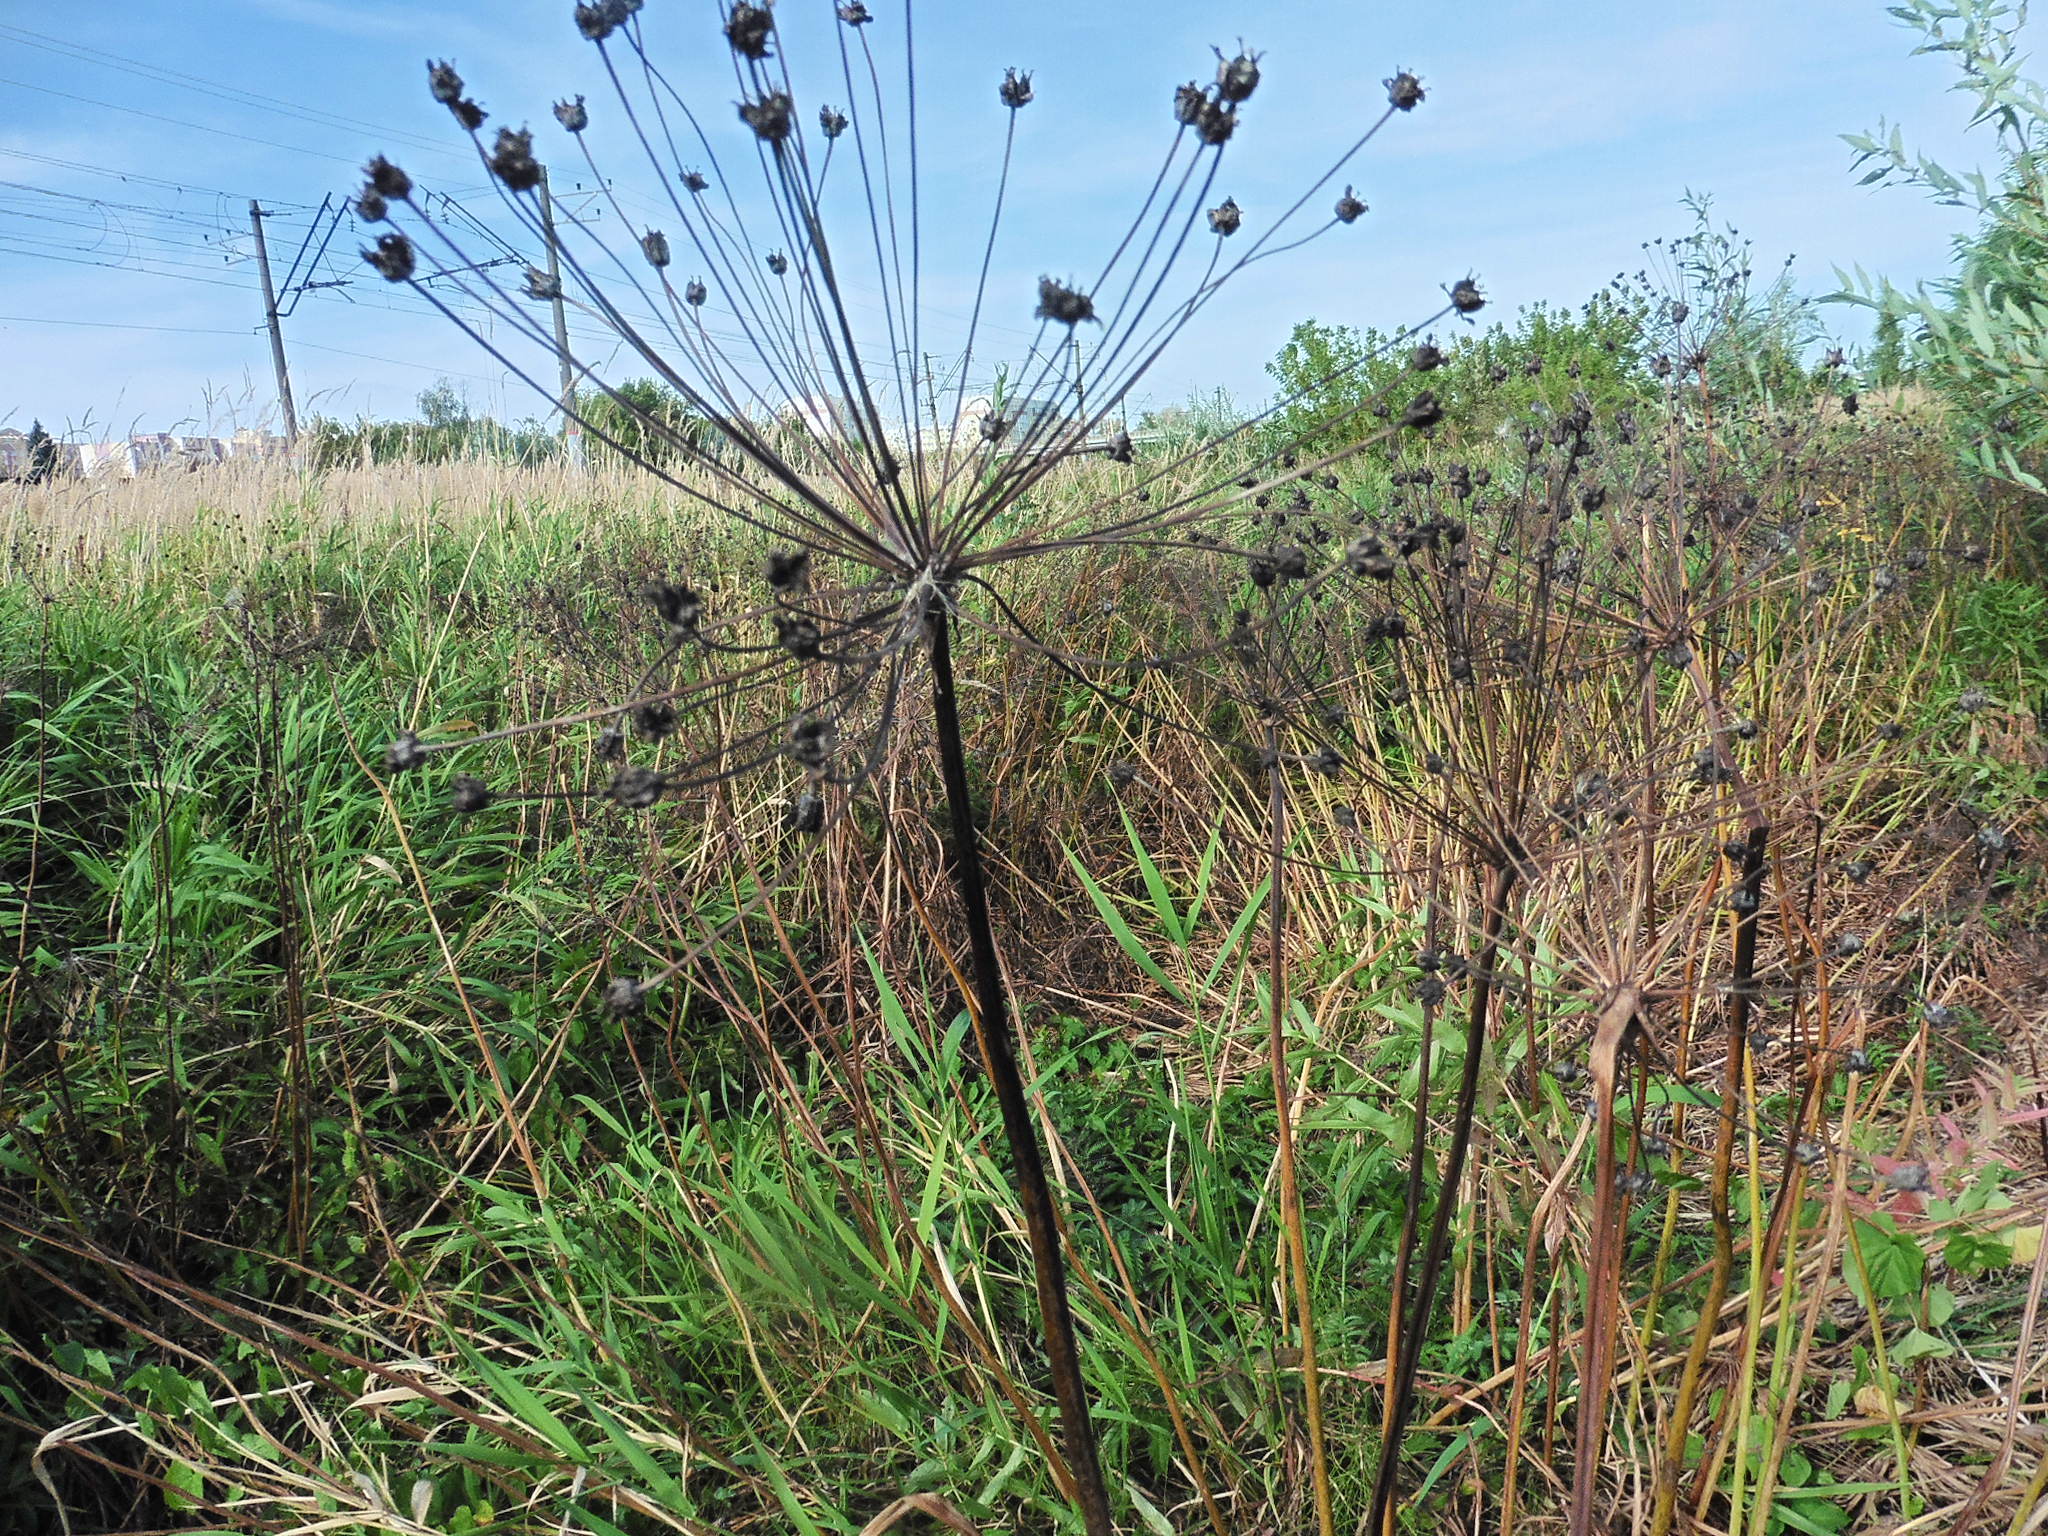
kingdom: Plantae
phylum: Tracheophyta
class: Liliopsida
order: Alismatales
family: Butomaceae
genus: Butomus
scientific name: Butomus umbellatus
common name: Flowering-rush
